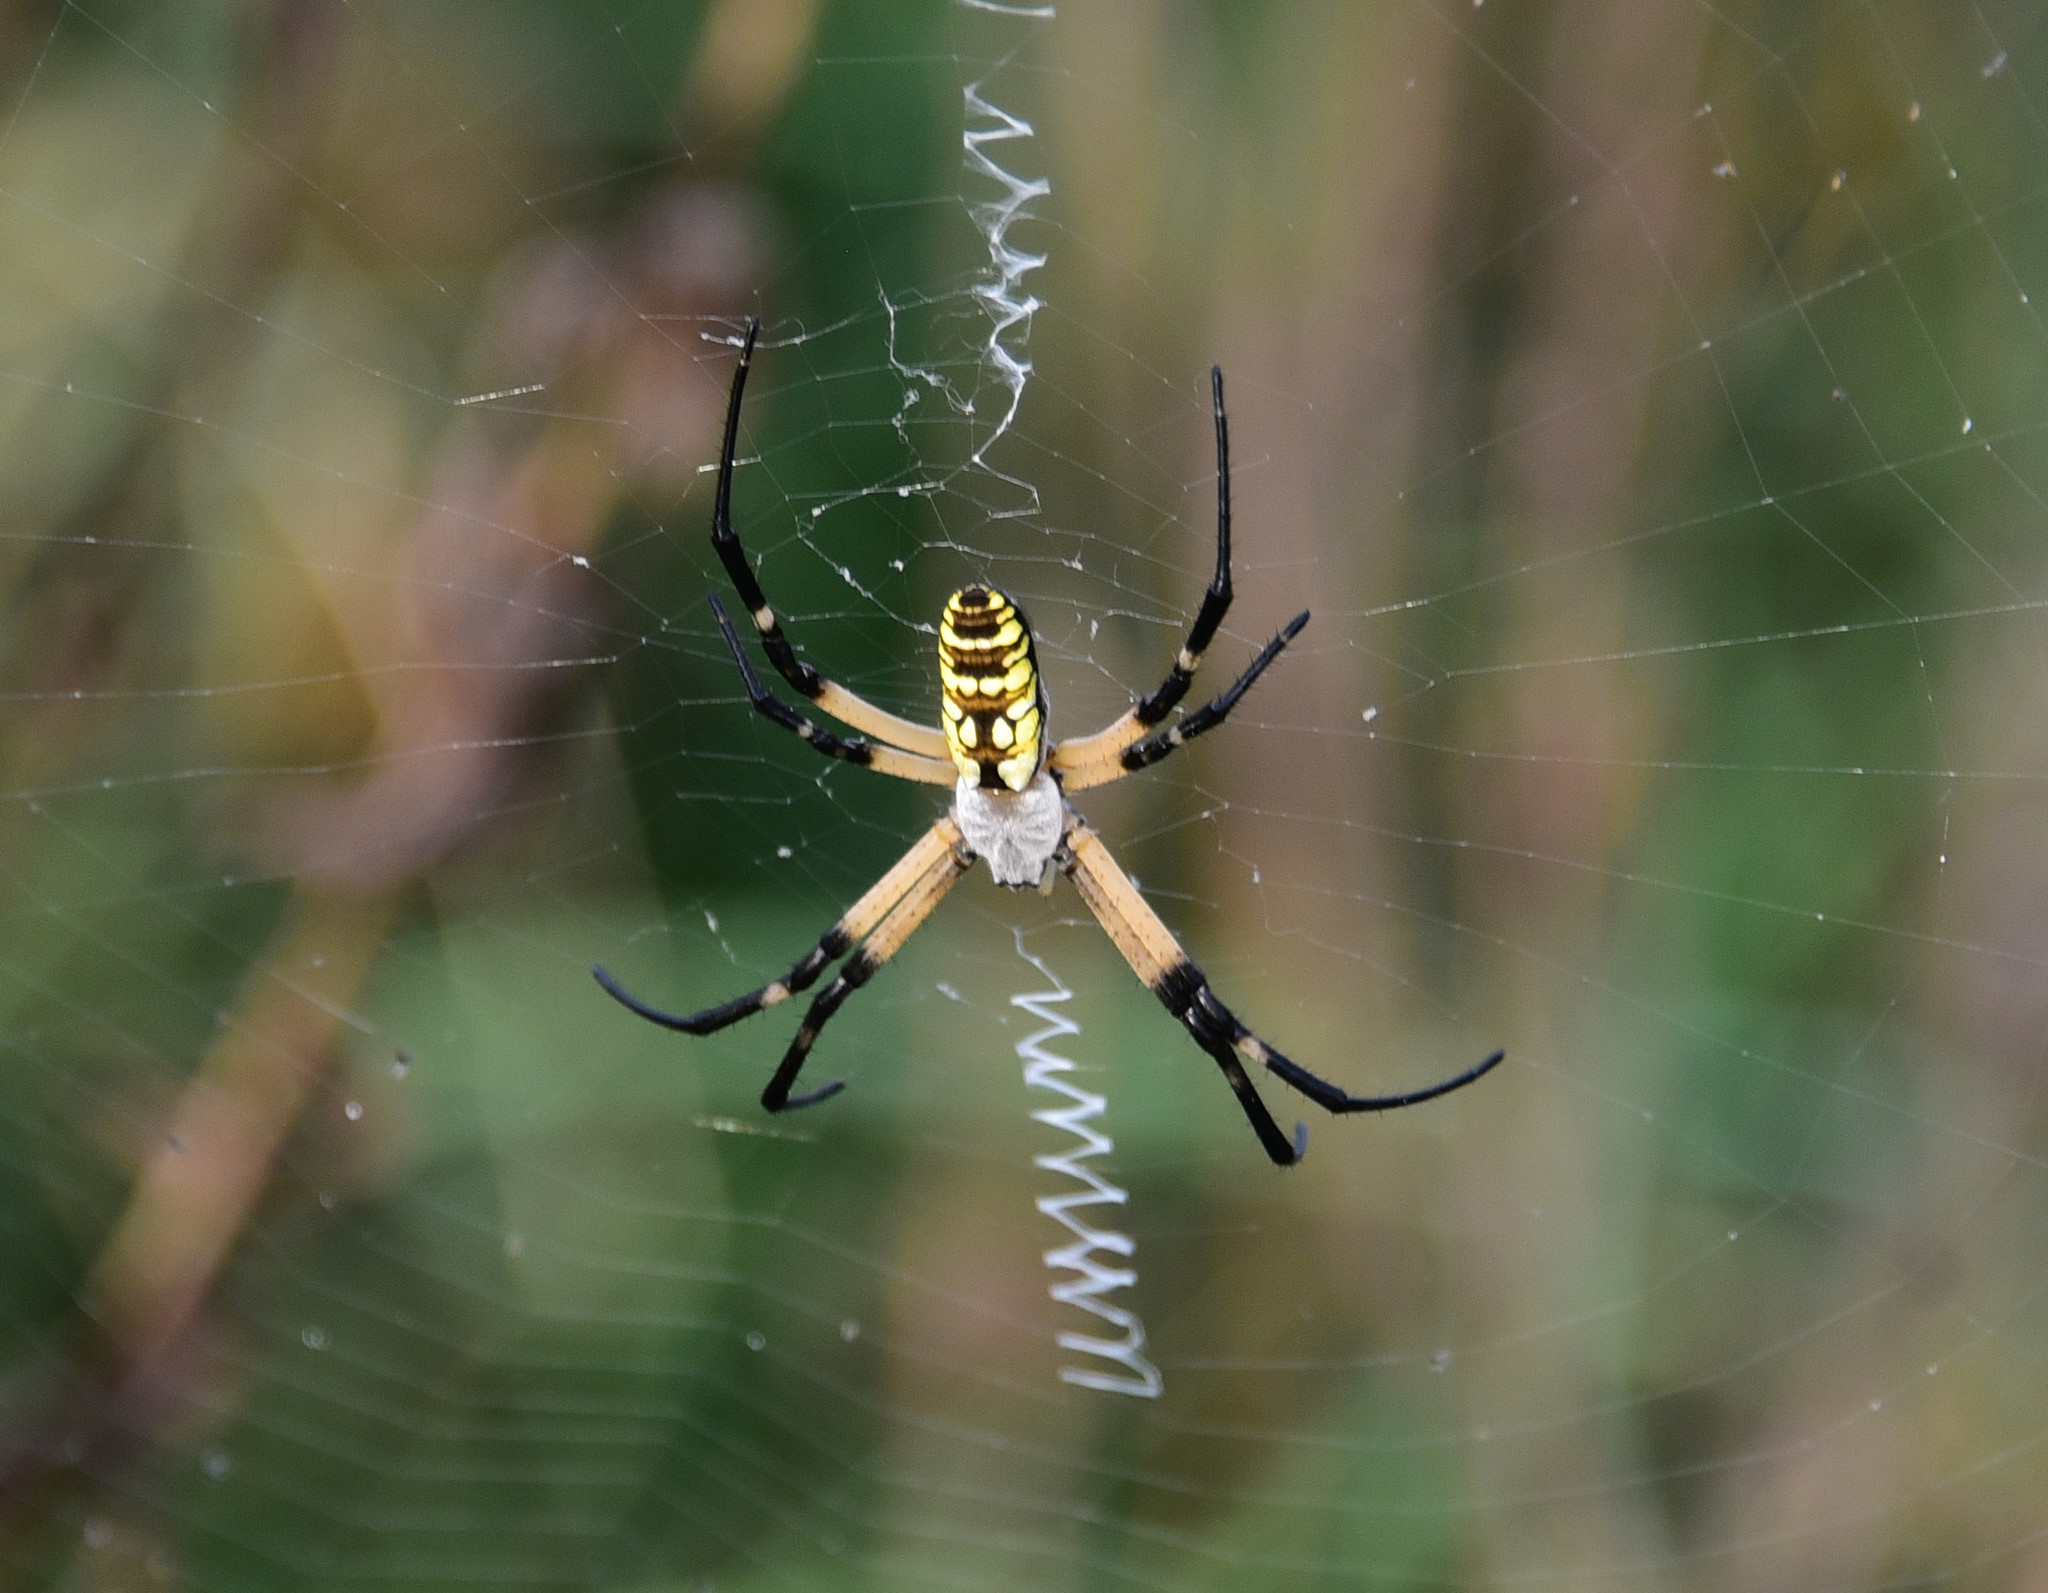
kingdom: Animalia
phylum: Arthropoda
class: Arachnida
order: Araneae
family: Araneidae
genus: Argiope
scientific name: Argiope aurantia
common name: Orb weavers
